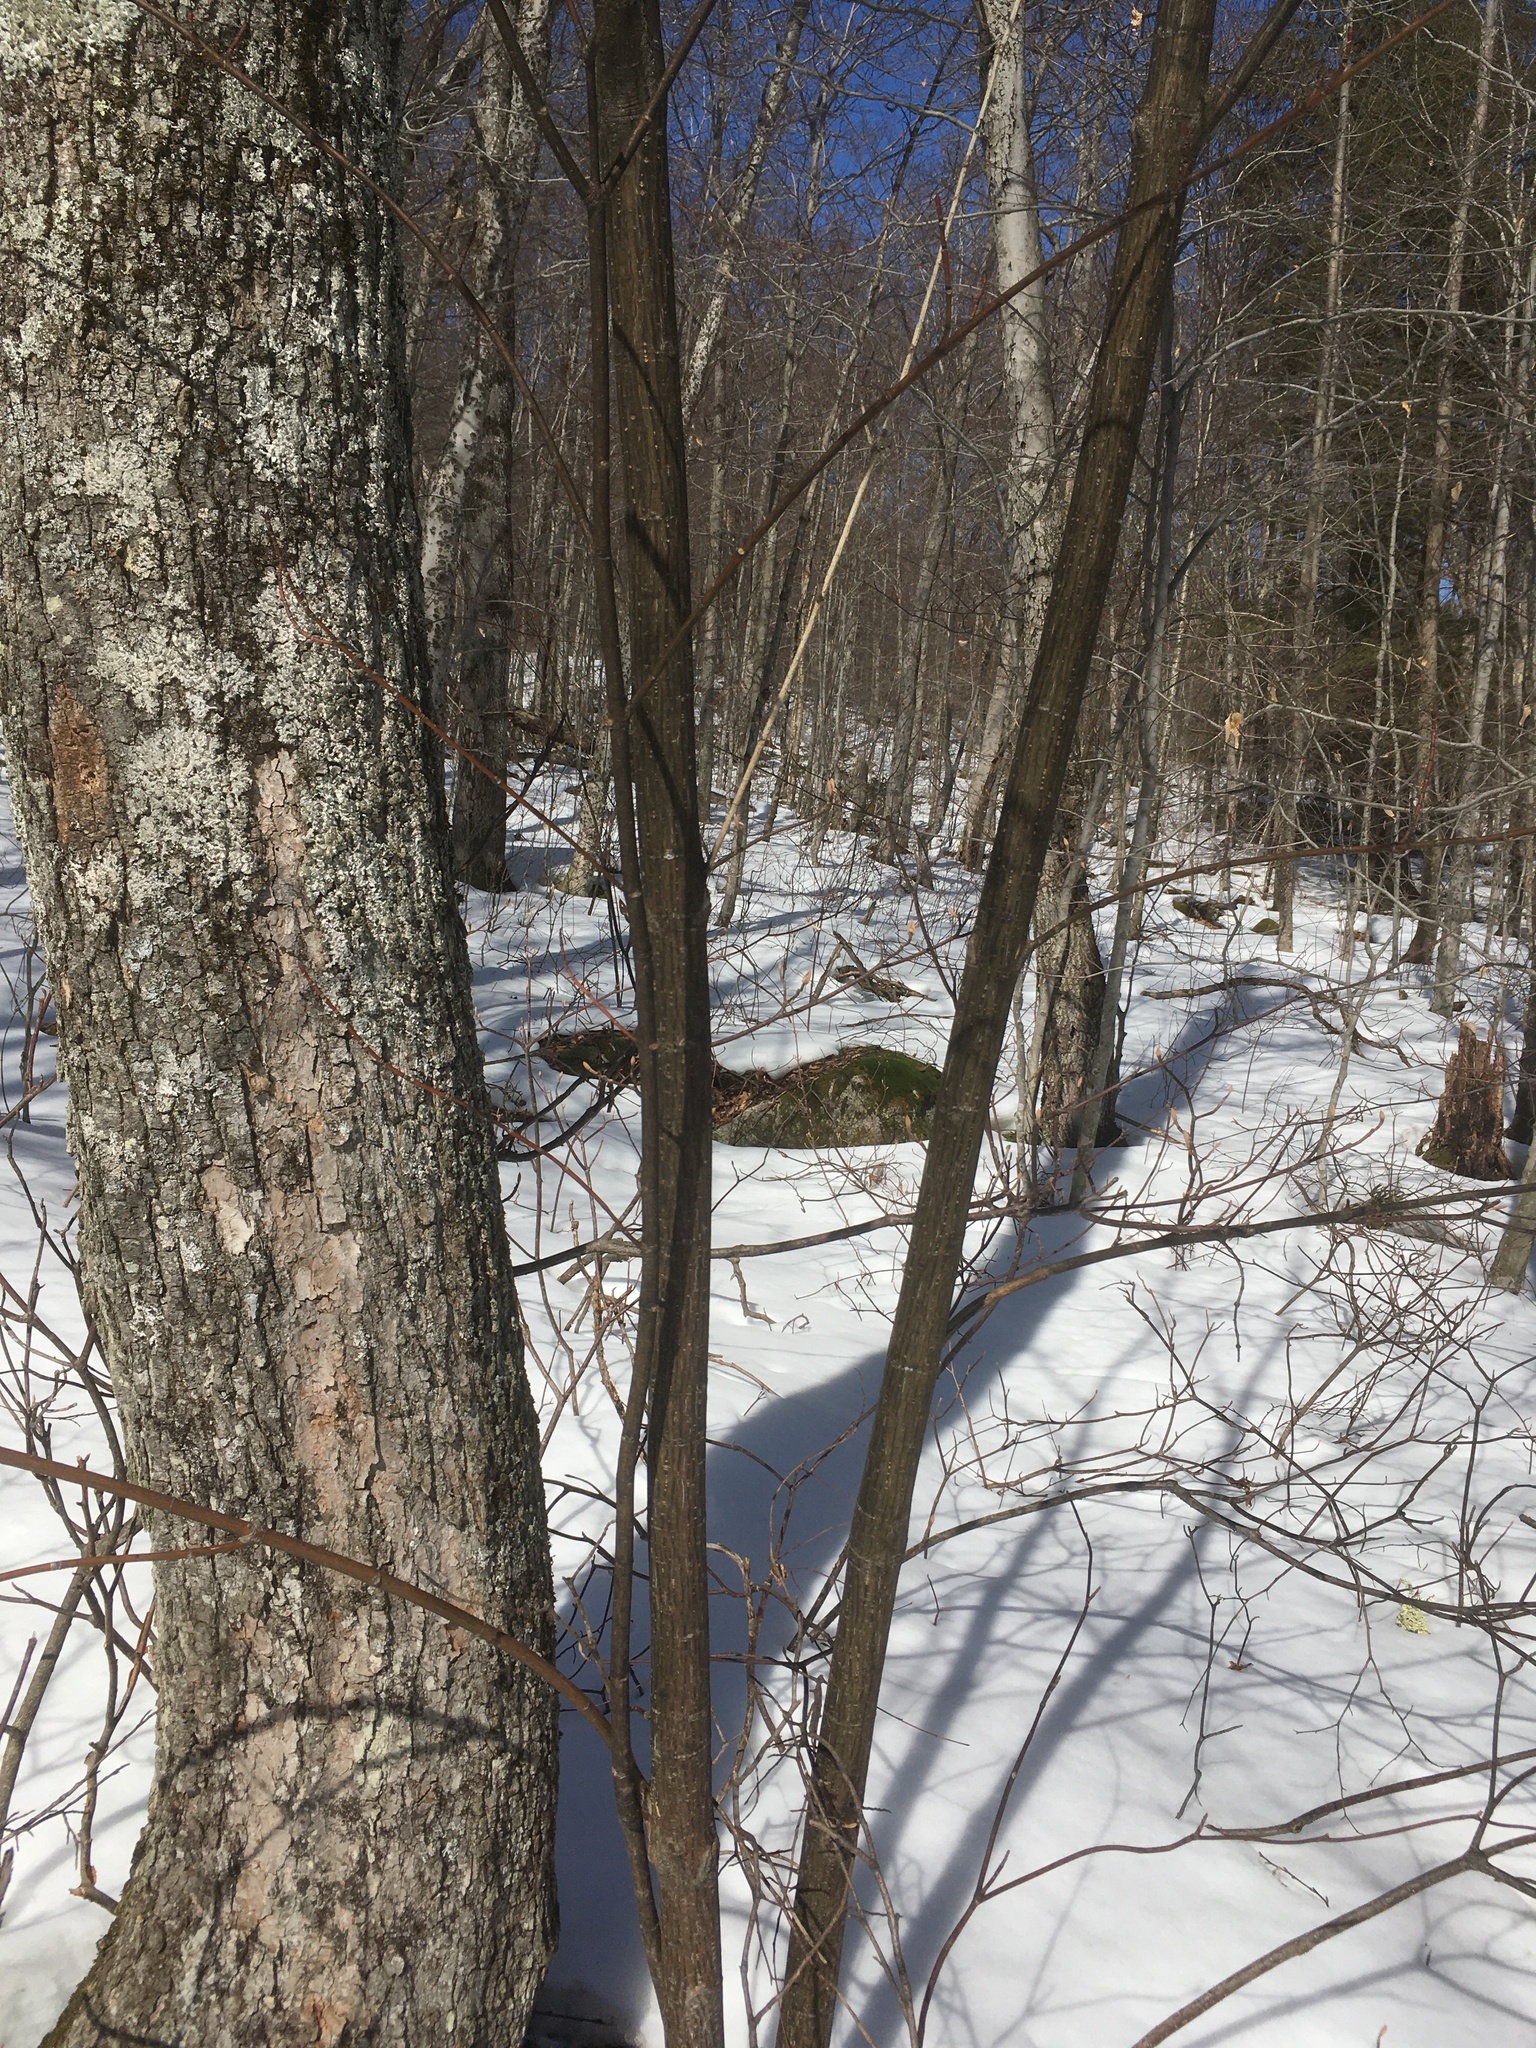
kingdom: Plantae
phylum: Tracheophyta
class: Magnoliopsida
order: Sapindales
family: Sapindaceae
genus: Acer
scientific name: Acer pensylvanicum
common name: Moosewood
